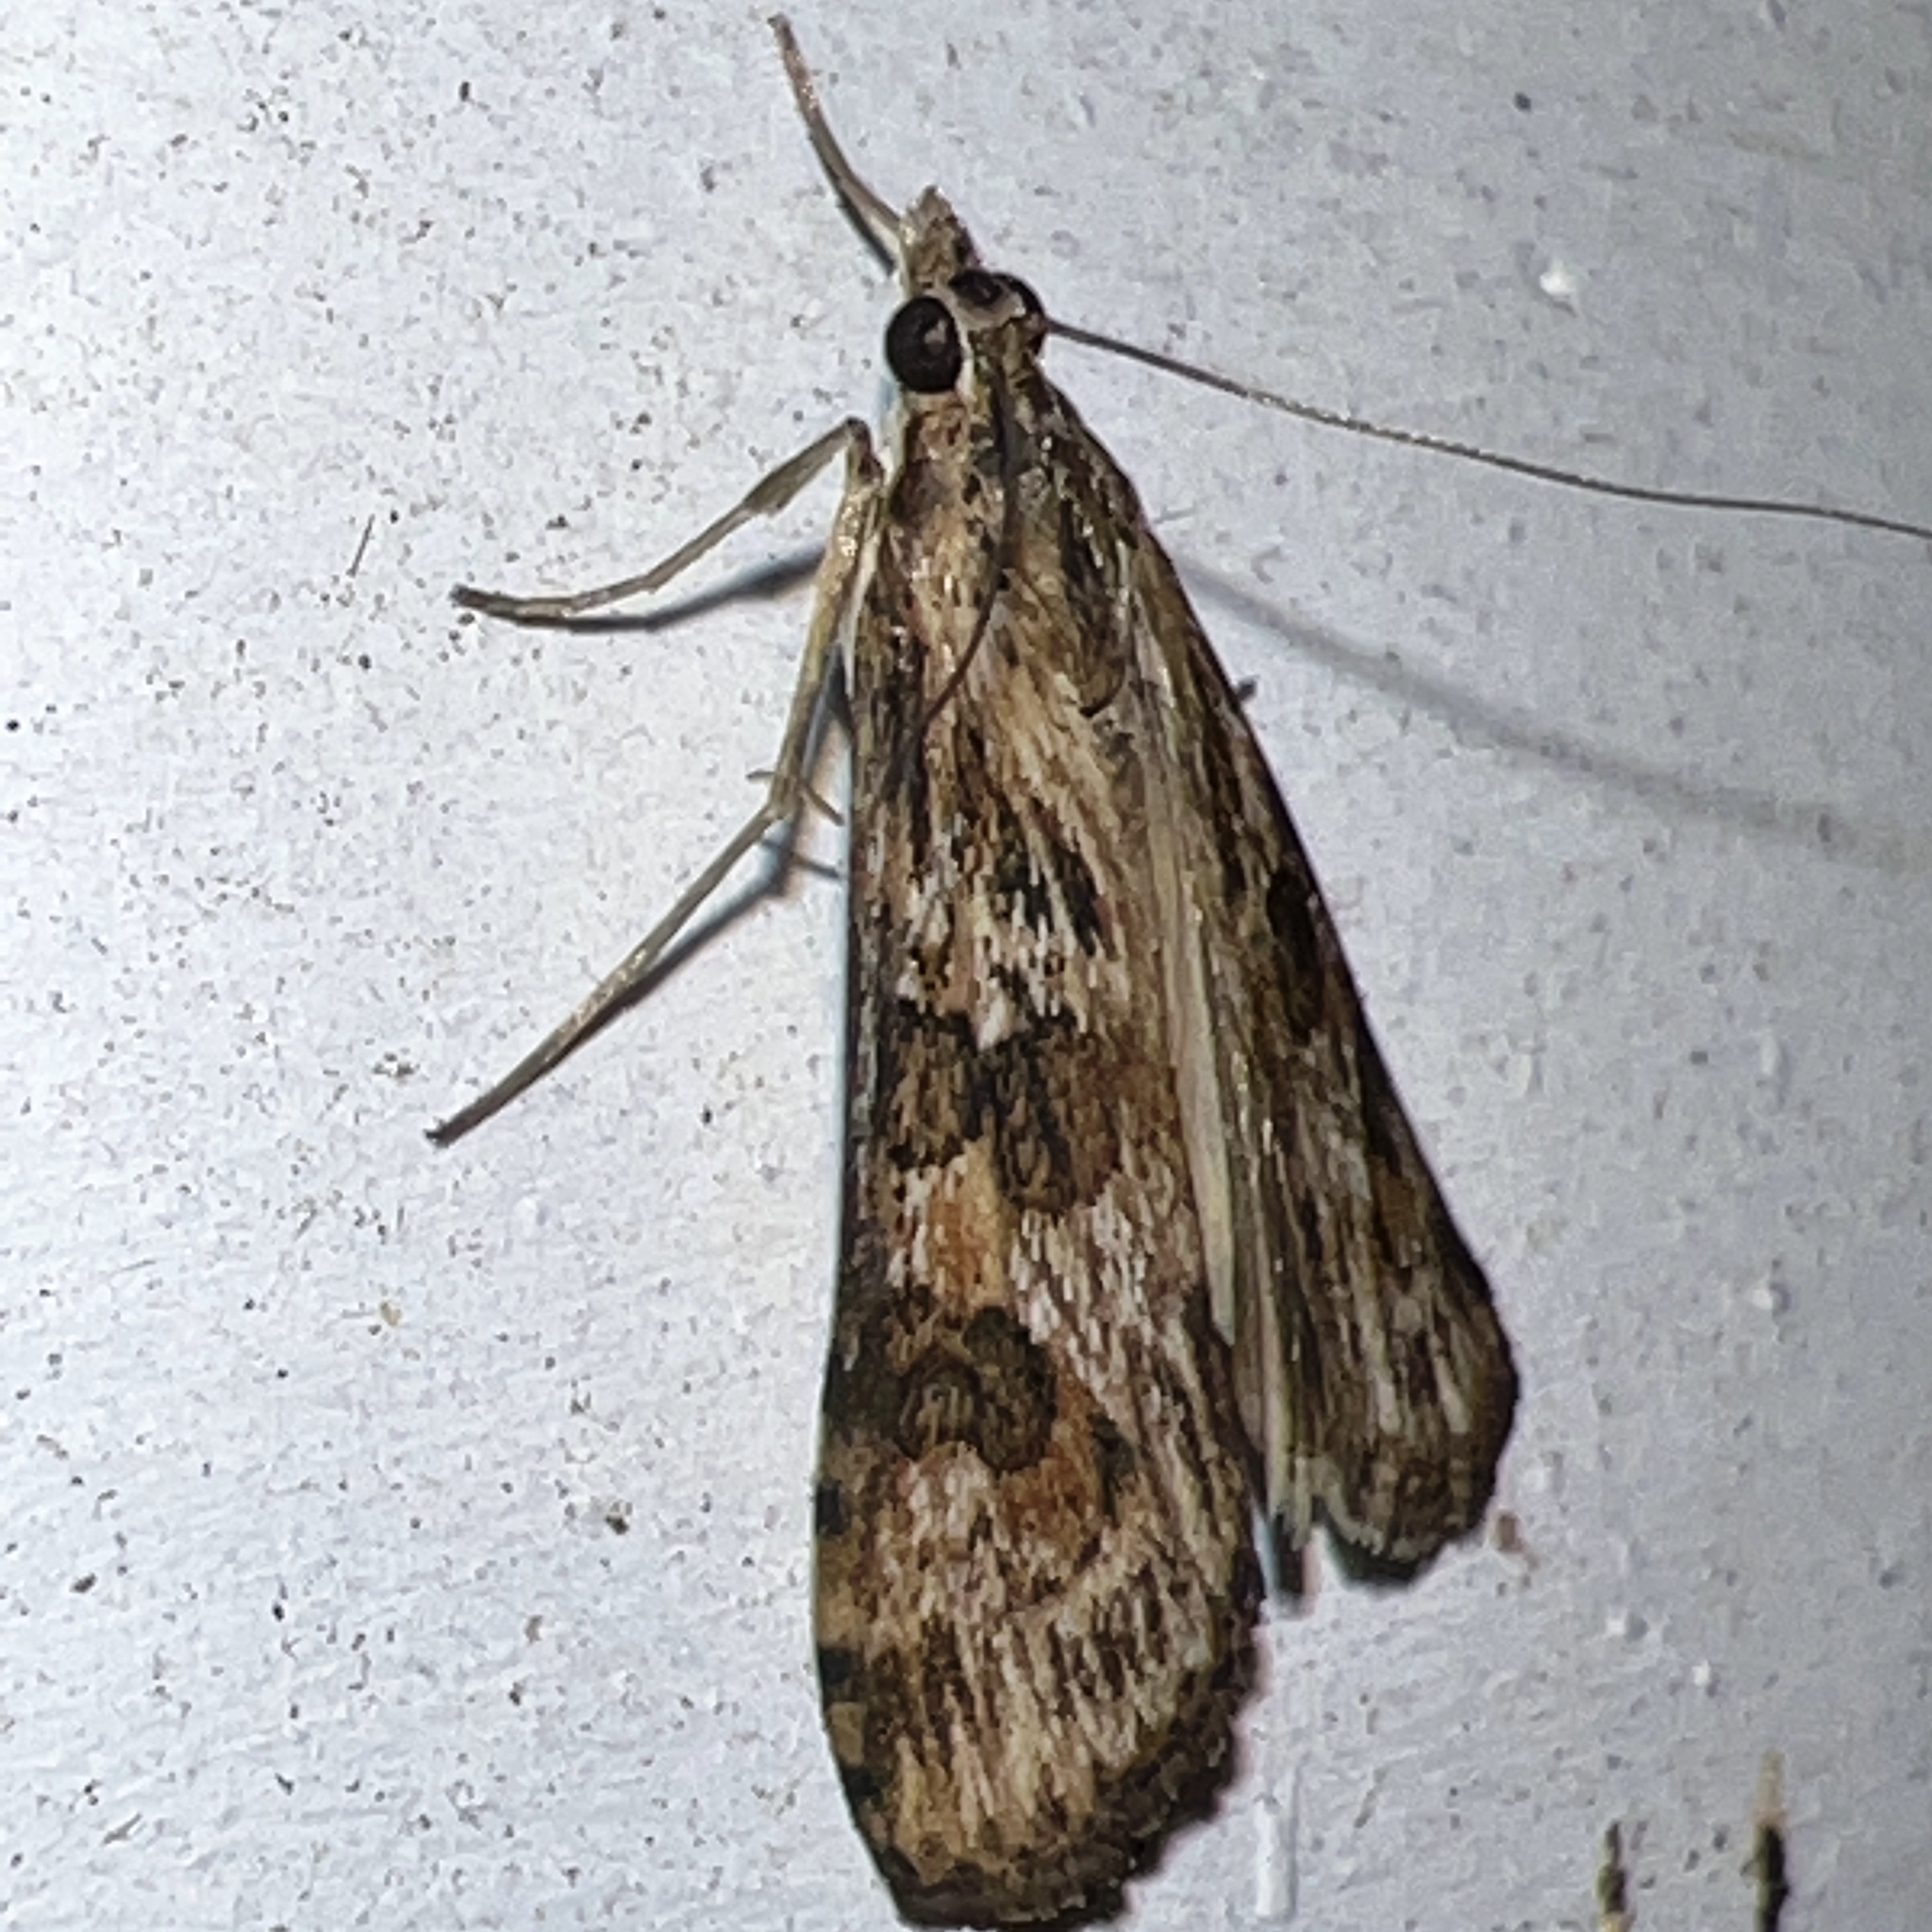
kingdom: Animalia
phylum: Arthropoda
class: Insecta
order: Lepidoptera
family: Crambidae
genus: Nomophila
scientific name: Nomophila nearctica
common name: American rush veneer
